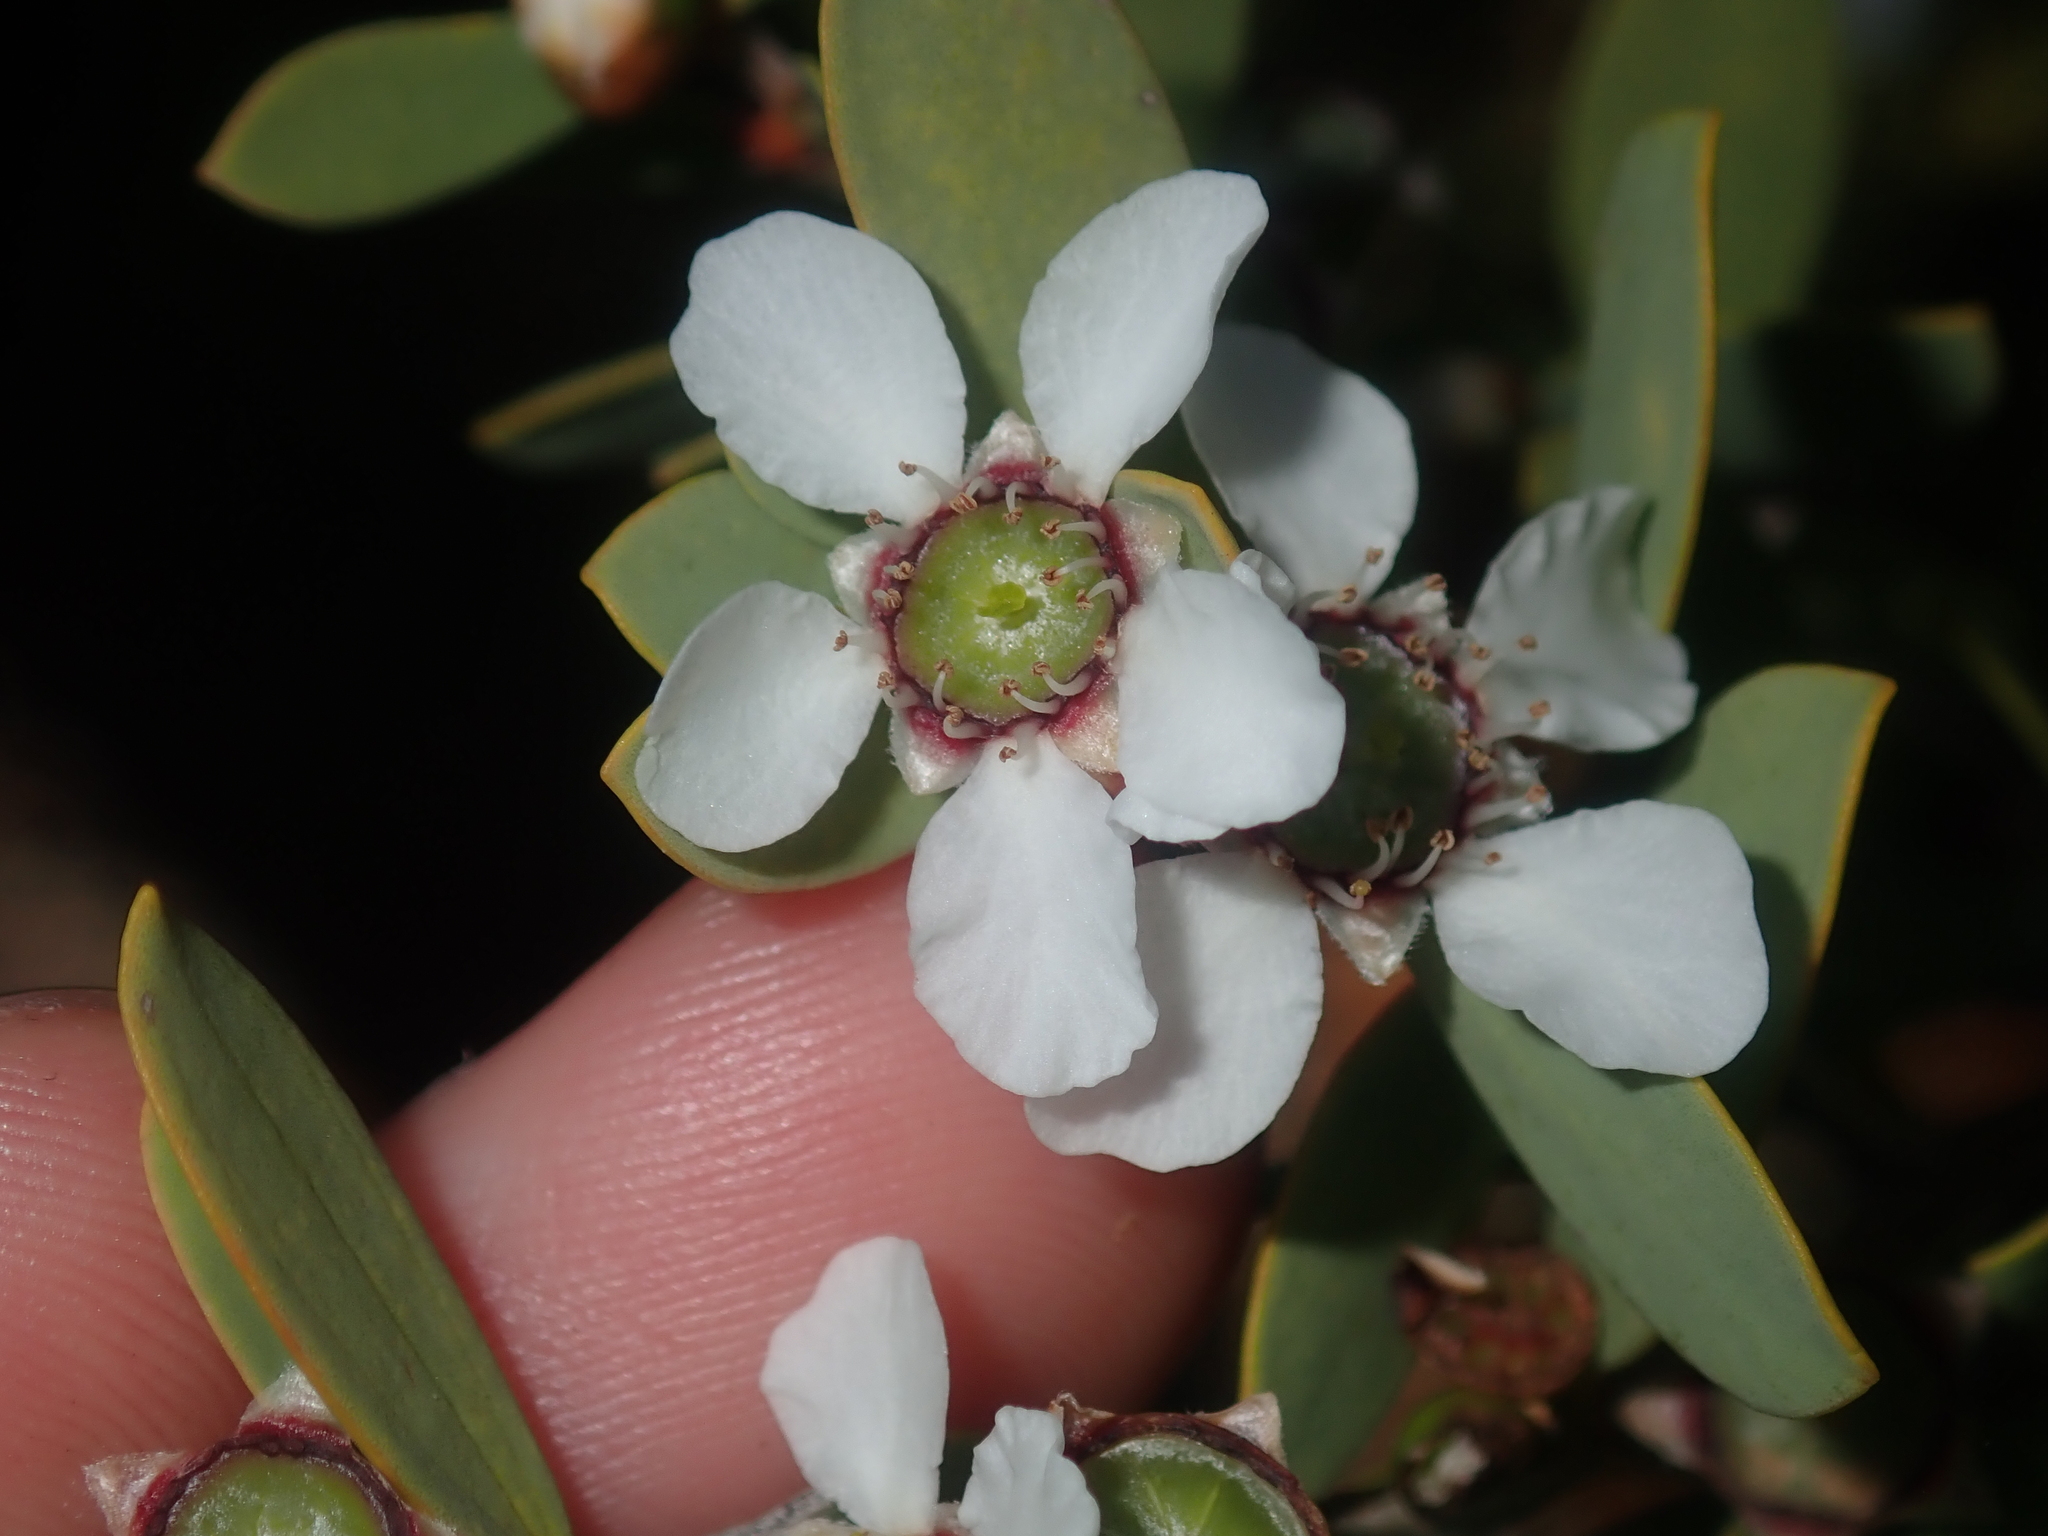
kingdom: Plantae
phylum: Tracheophyta
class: Magnoliopsida
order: Myrtales
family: Myrtaceae
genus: Leptospermum
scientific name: Leptospermum laevigatum
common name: Australian teatree
